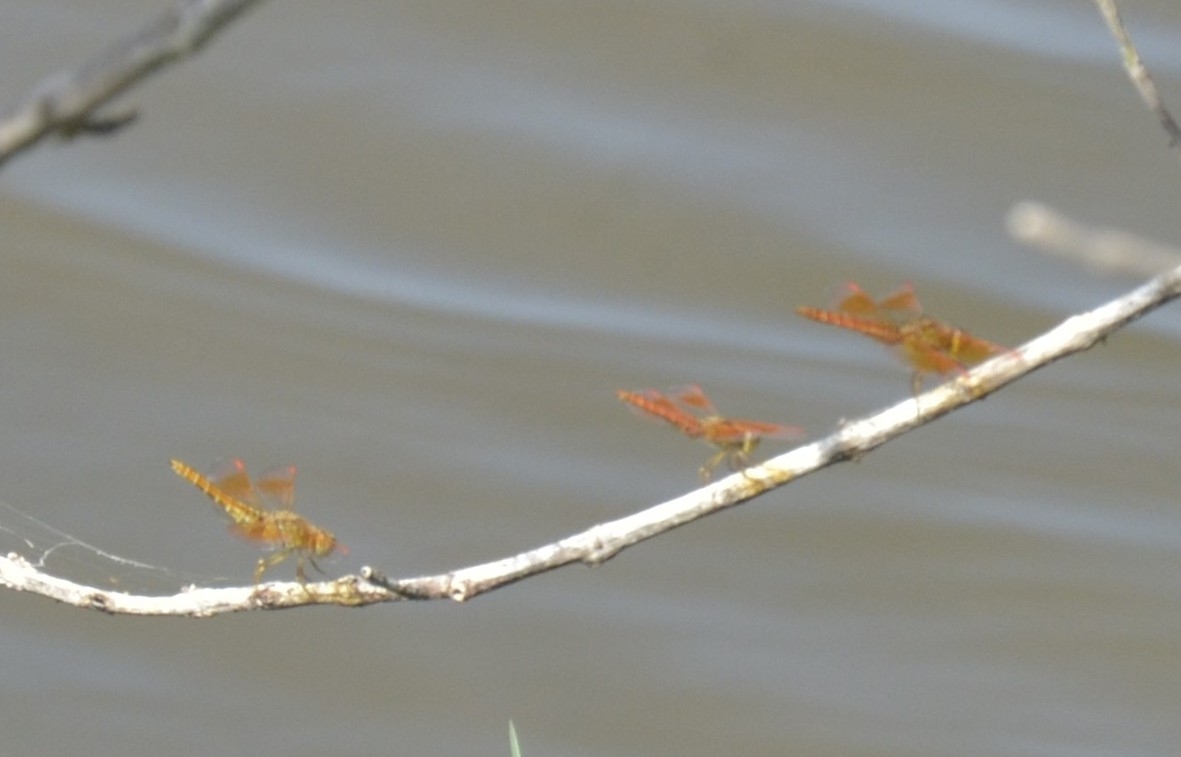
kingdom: Animalia
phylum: Arthropoda
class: Insecta
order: Odonata
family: Libellulidae
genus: Brachythemis
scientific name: Brachythemis contaminata
